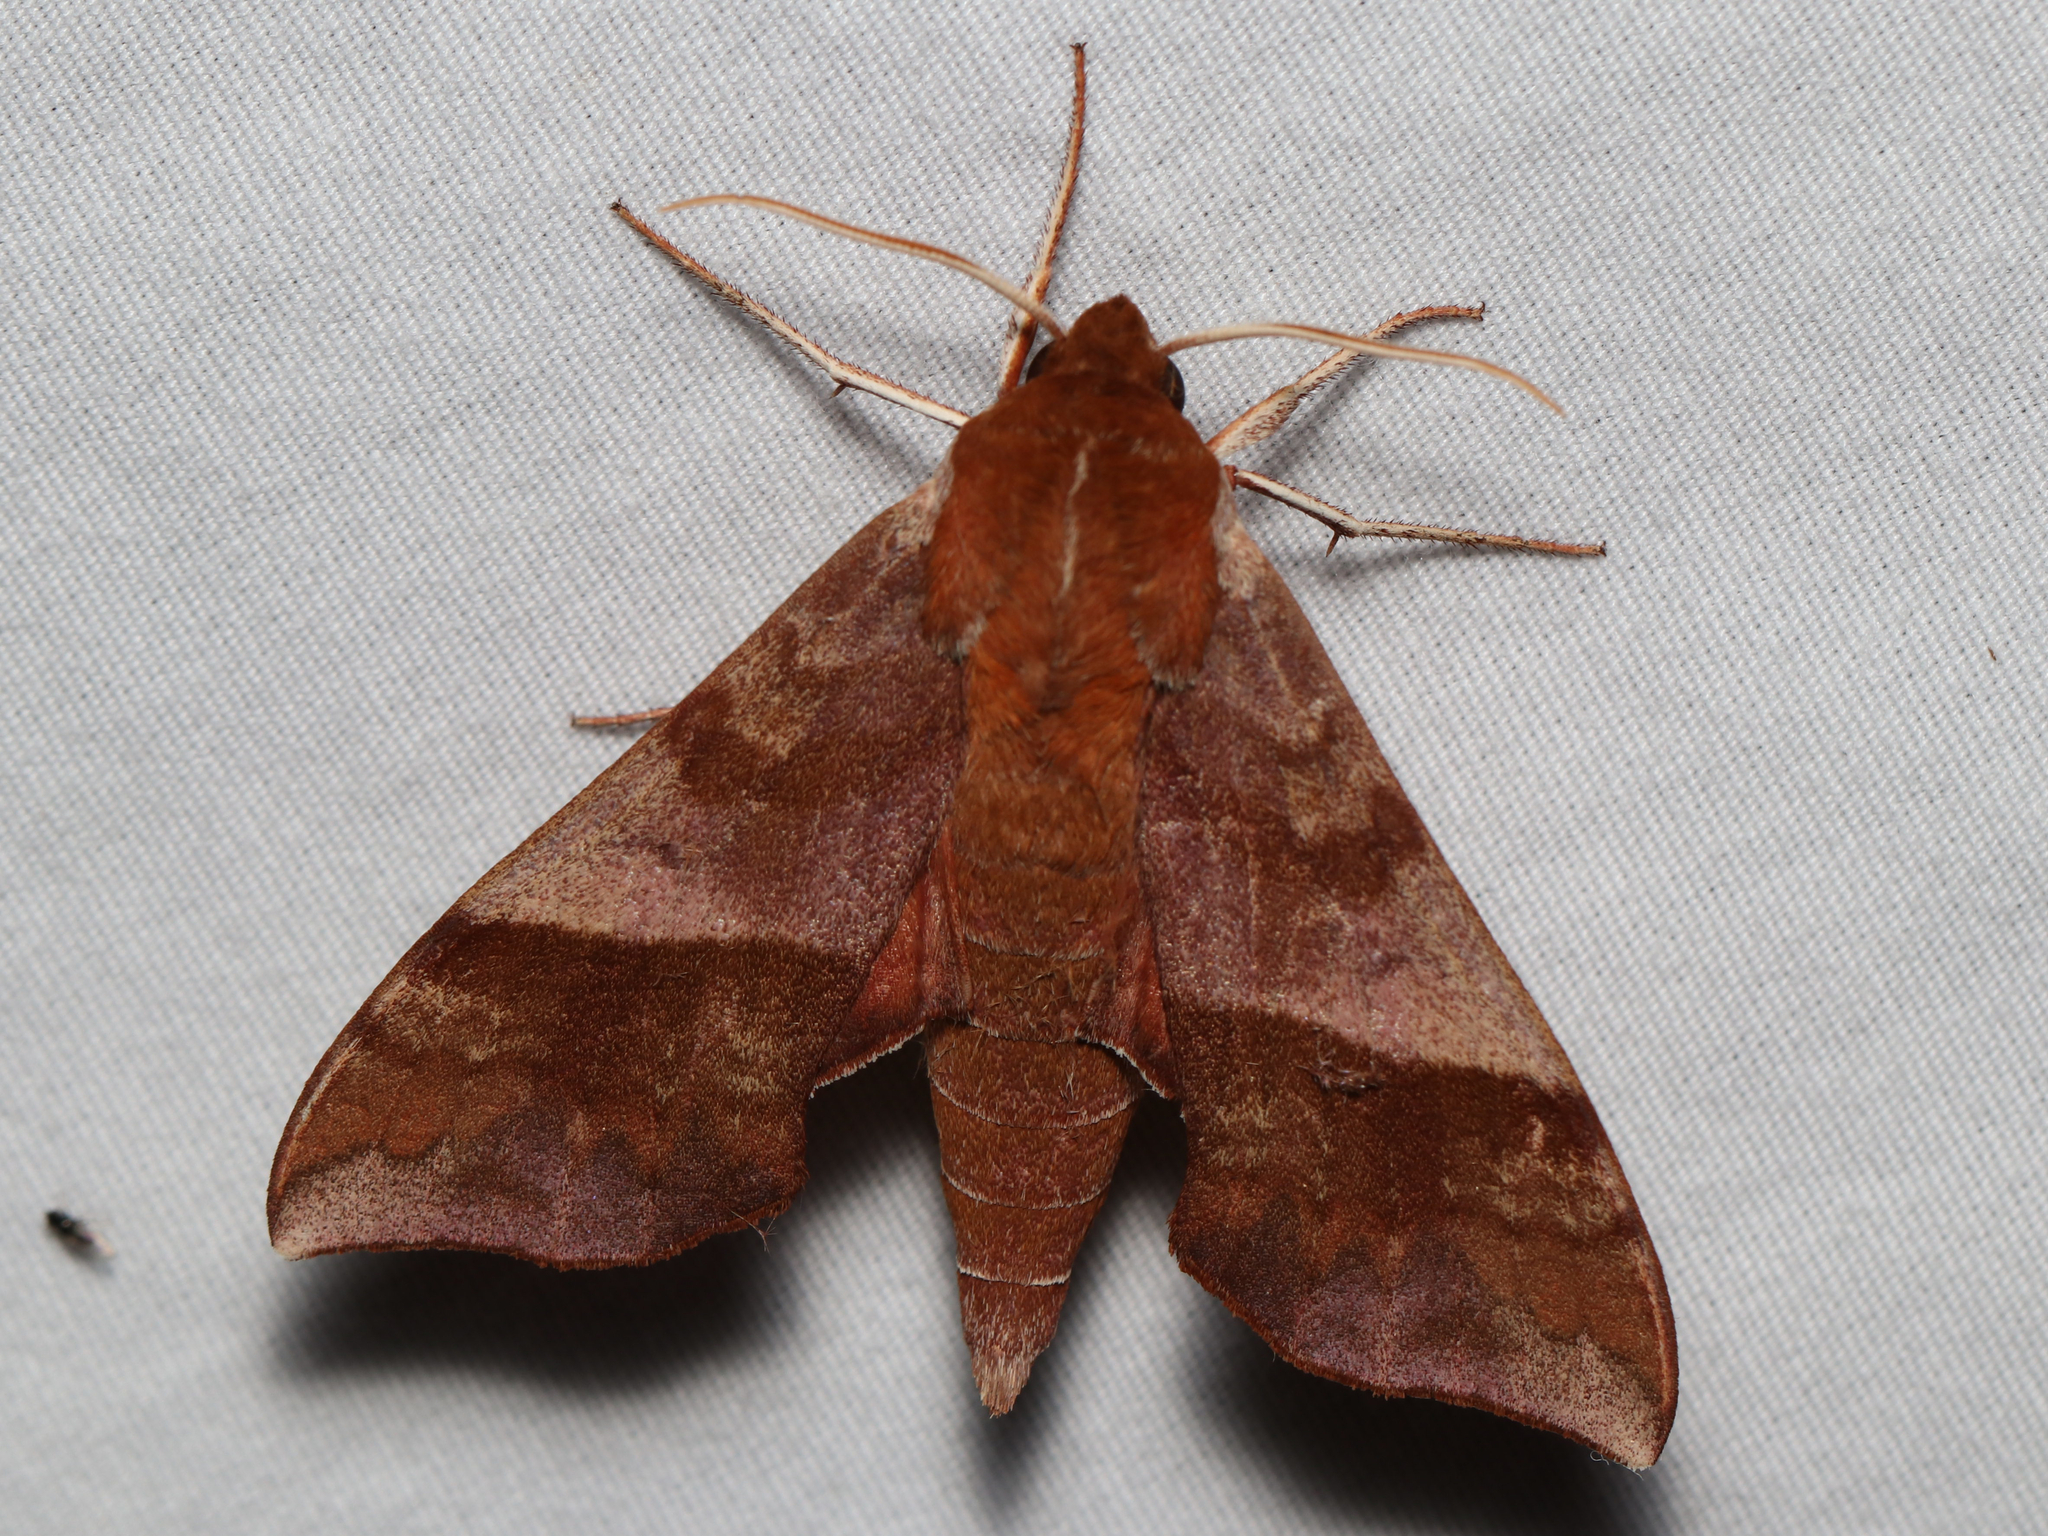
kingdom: Animalia
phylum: Arthropoda
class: Insecta
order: Lepidoptera
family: Sphingidae
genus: Darapsa
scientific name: Darapsa choerilus
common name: Azalea sphinx
